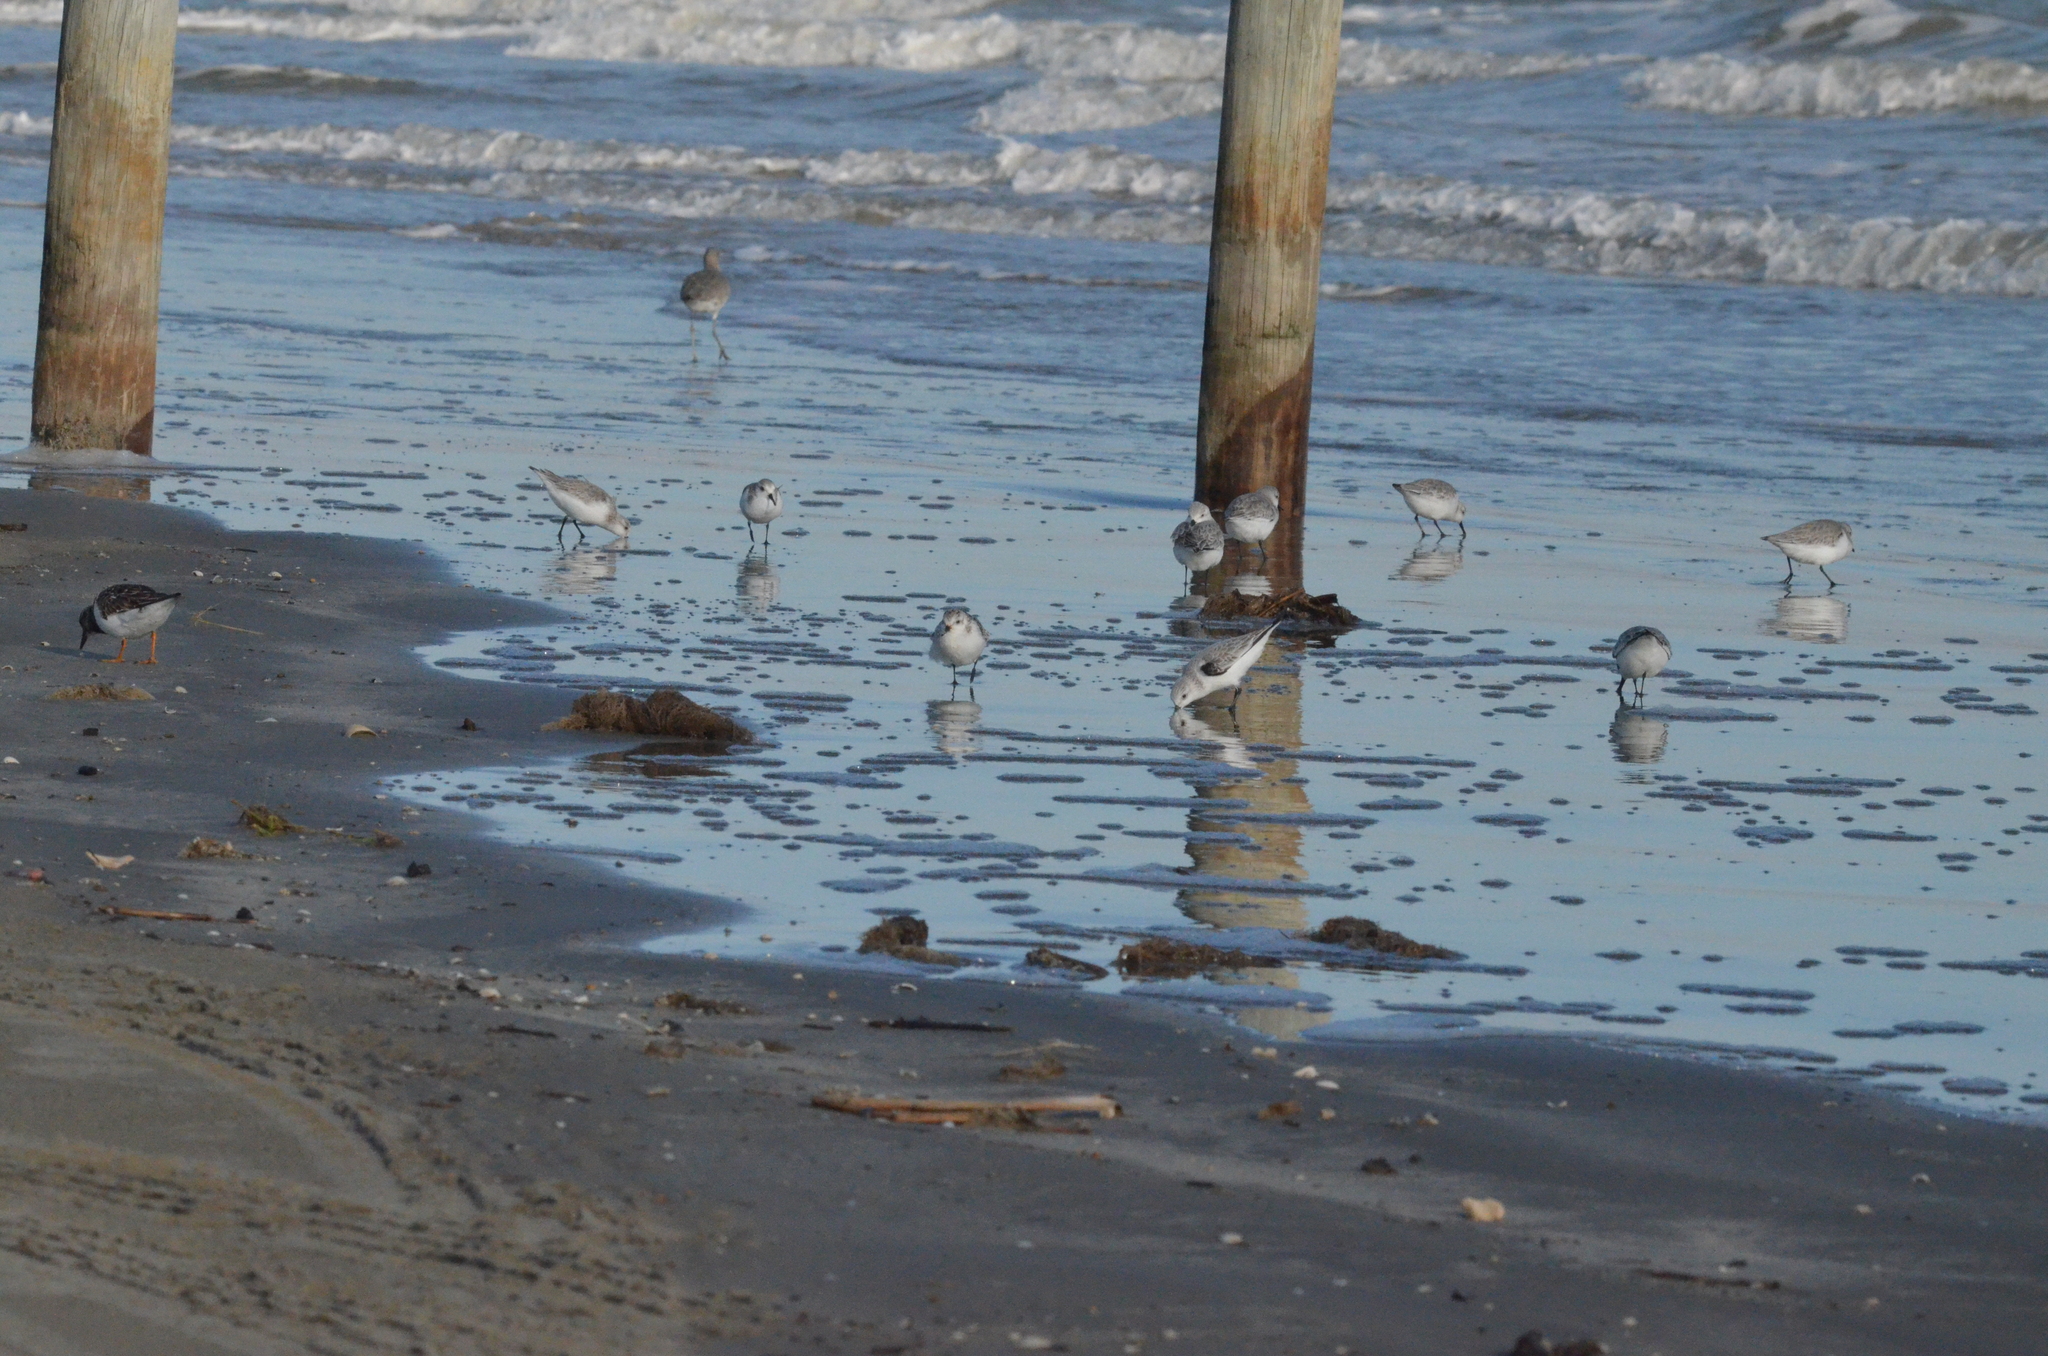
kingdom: Animalia
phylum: Chordata
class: Aves
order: Charadriiformes
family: Scolopacidae
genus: Calidris
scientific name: Calidris alba
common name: Sanderling
